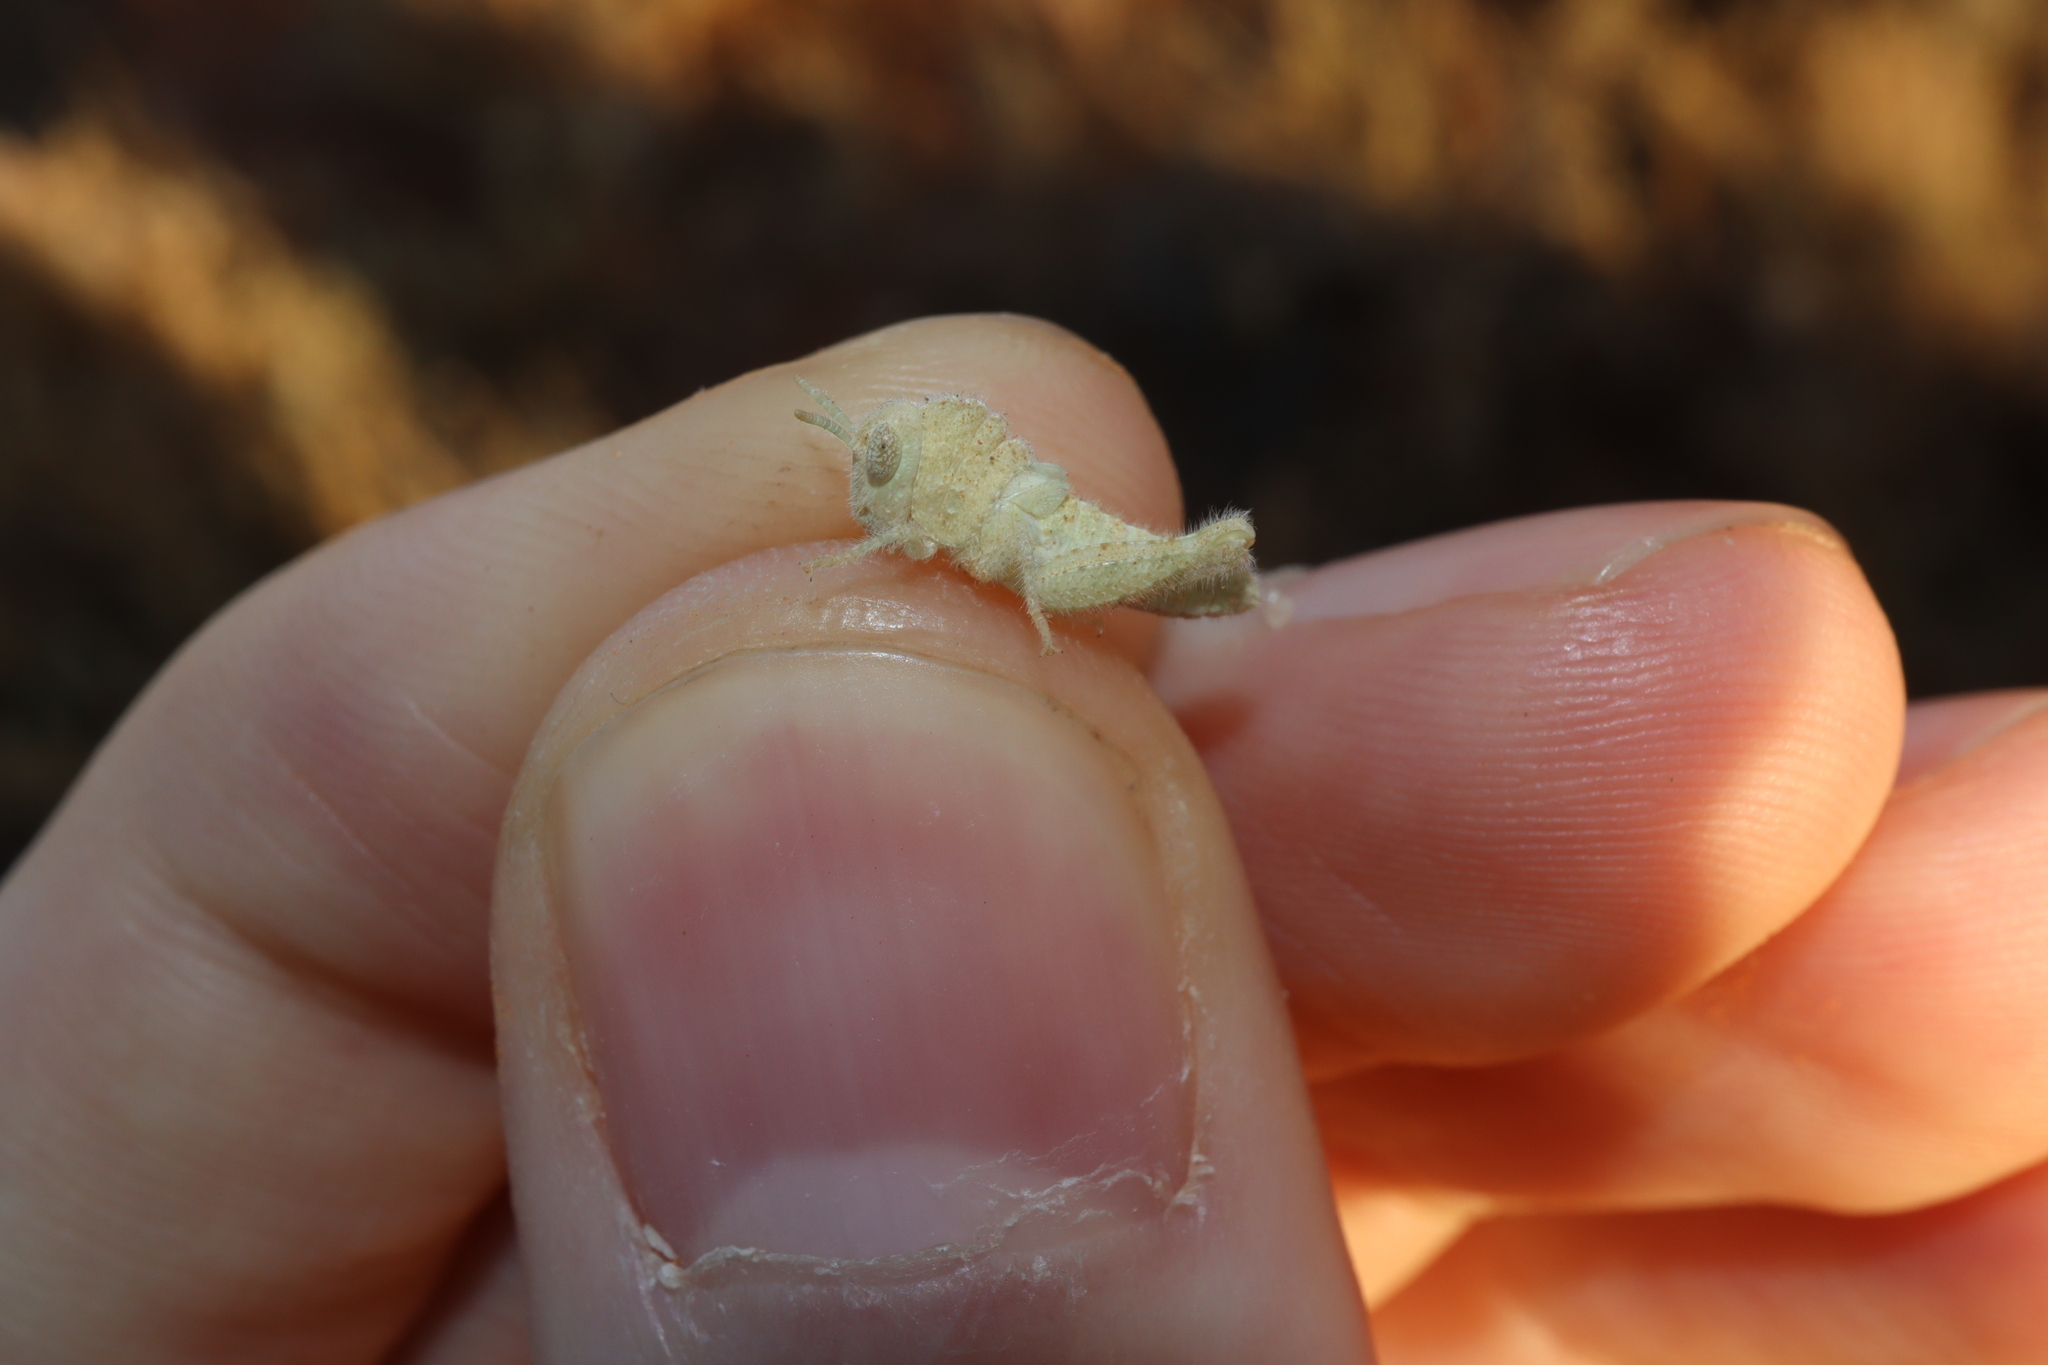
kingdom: Animalia
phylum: Arthropoda
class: Insecta
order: Orthoptera
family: Acrididae
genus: Ecphantus
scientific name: Ecphantus quadrilobus
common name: Crested tooth grinder
